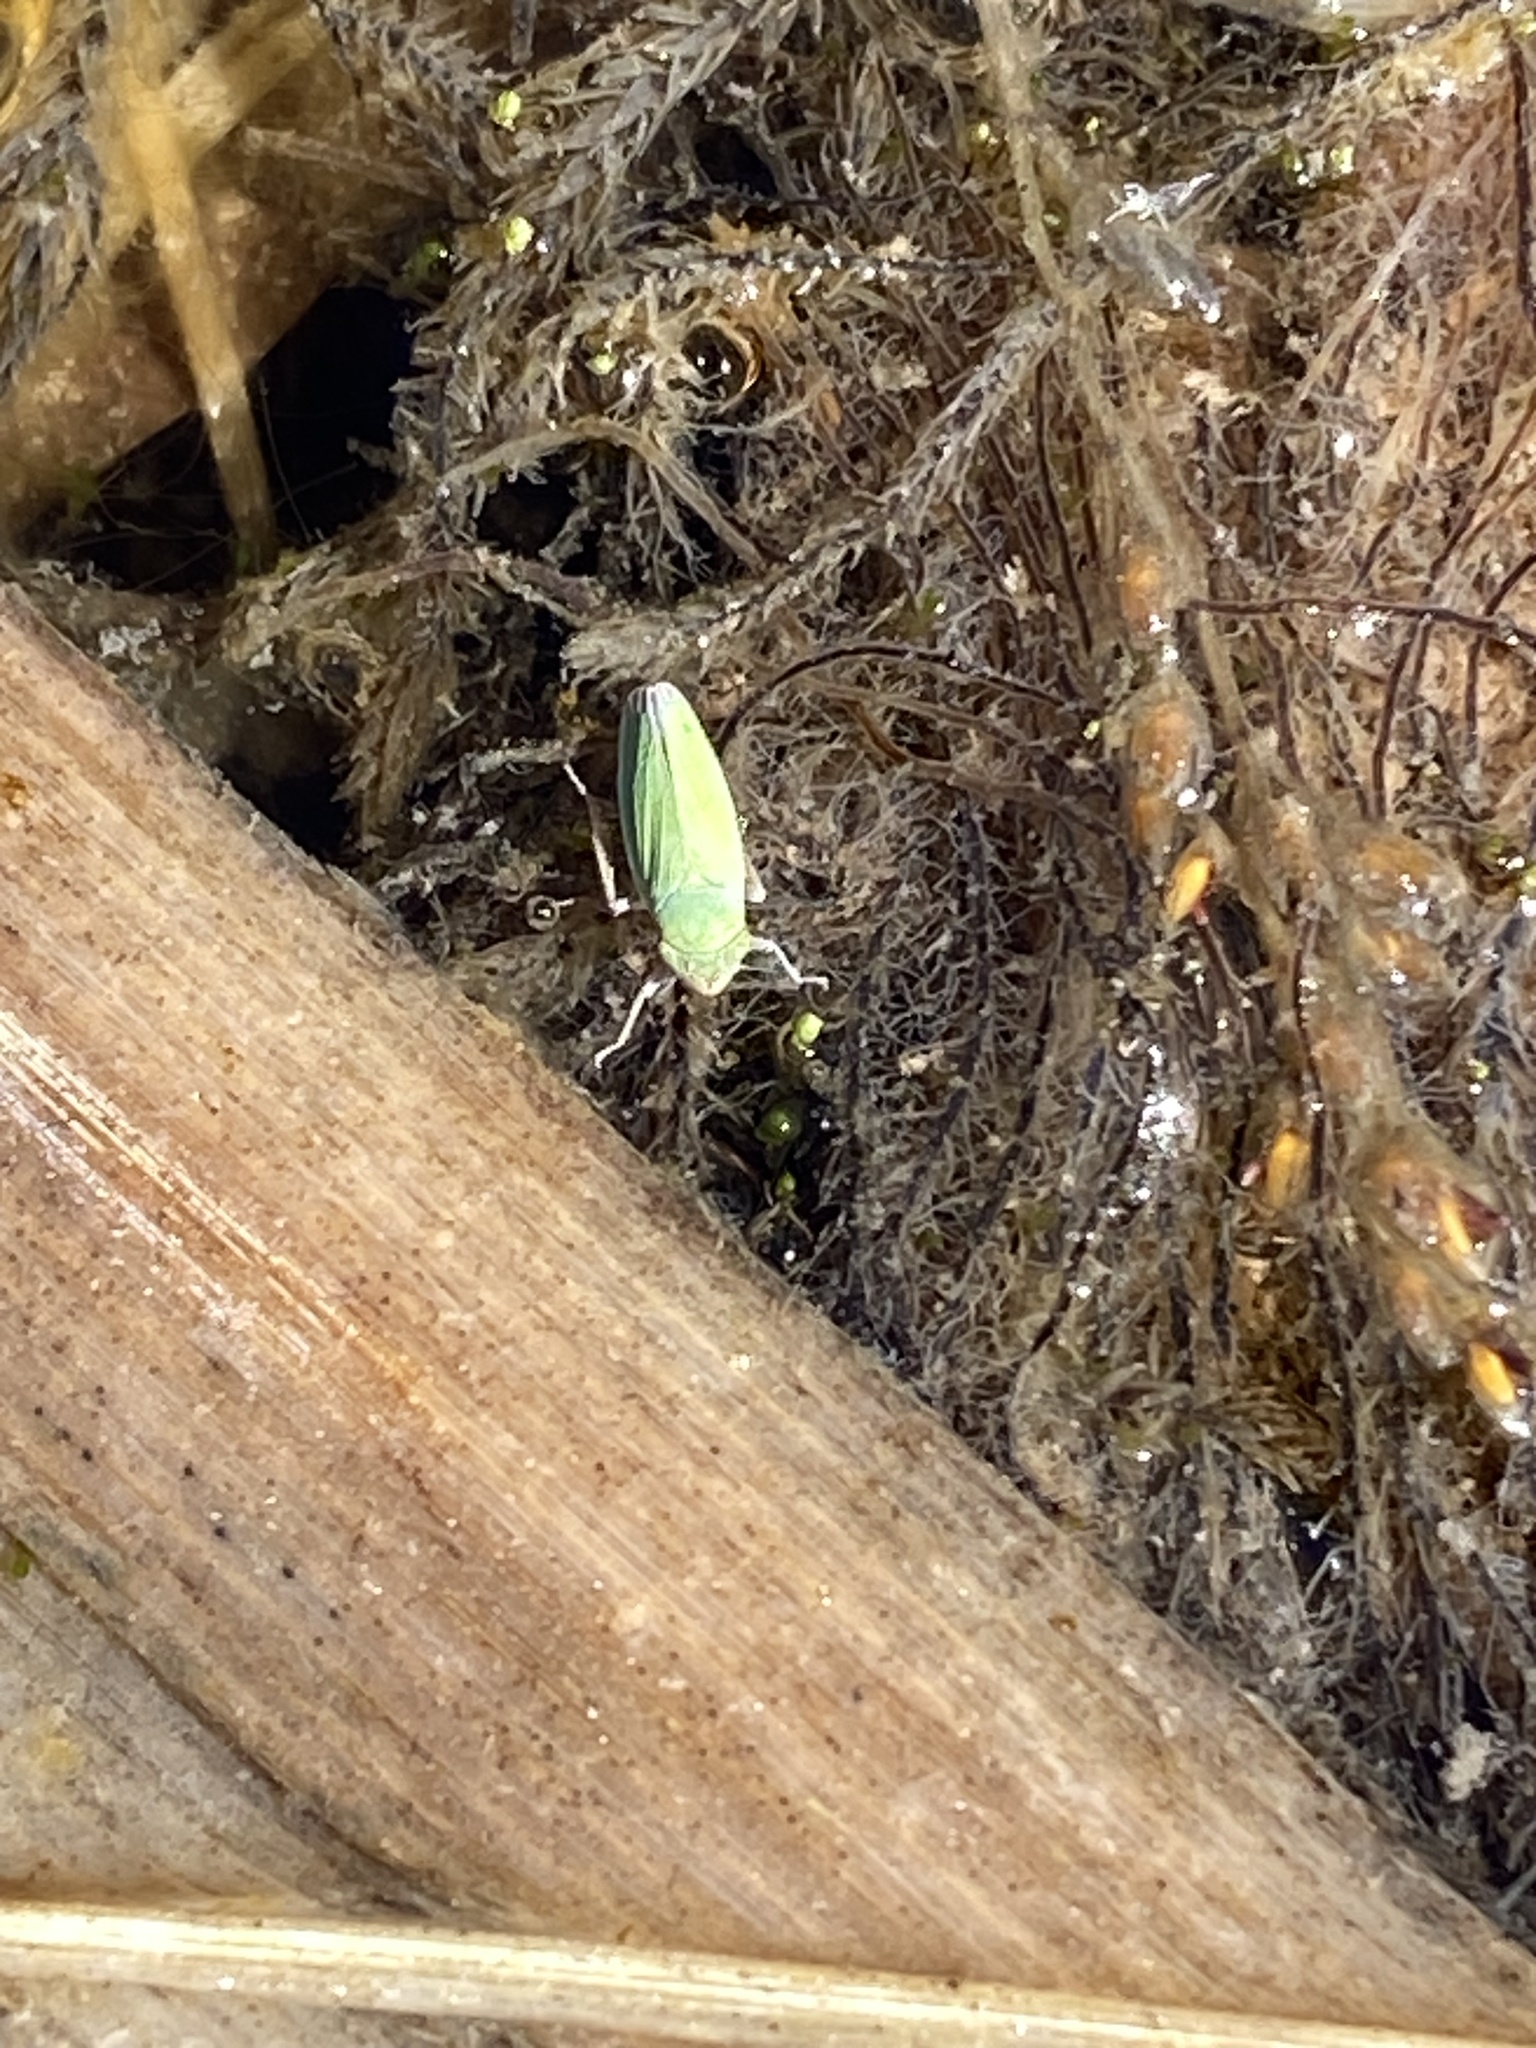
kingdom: Animalia
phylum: Arthropoda
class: Insecta
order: Hemiptera
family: Cicadellidae
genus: Helochara
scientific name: Helochara communis
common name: Bog leafhopper
